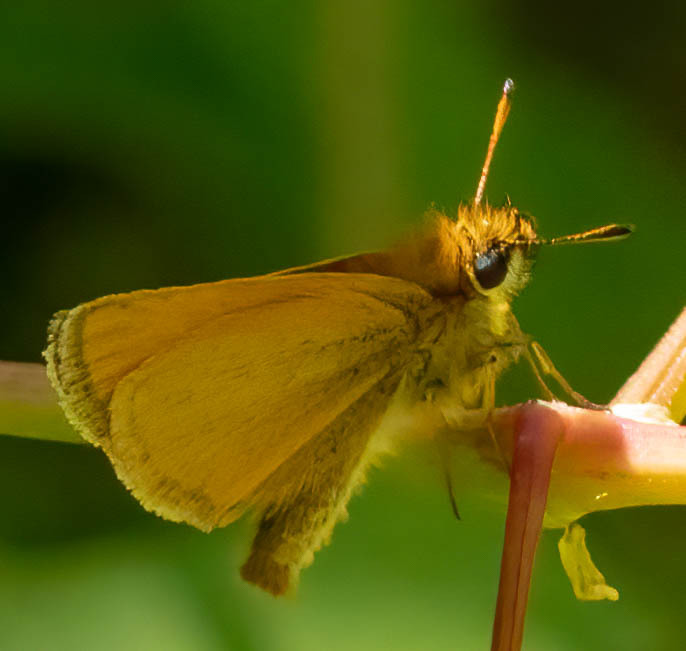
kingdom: Animalia
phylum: Arthropoda
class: Insecta
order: Lepidoptera
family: Hesperiidae
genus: Thymelicus
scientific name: Thymelicus lineola
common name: Essex skipper
